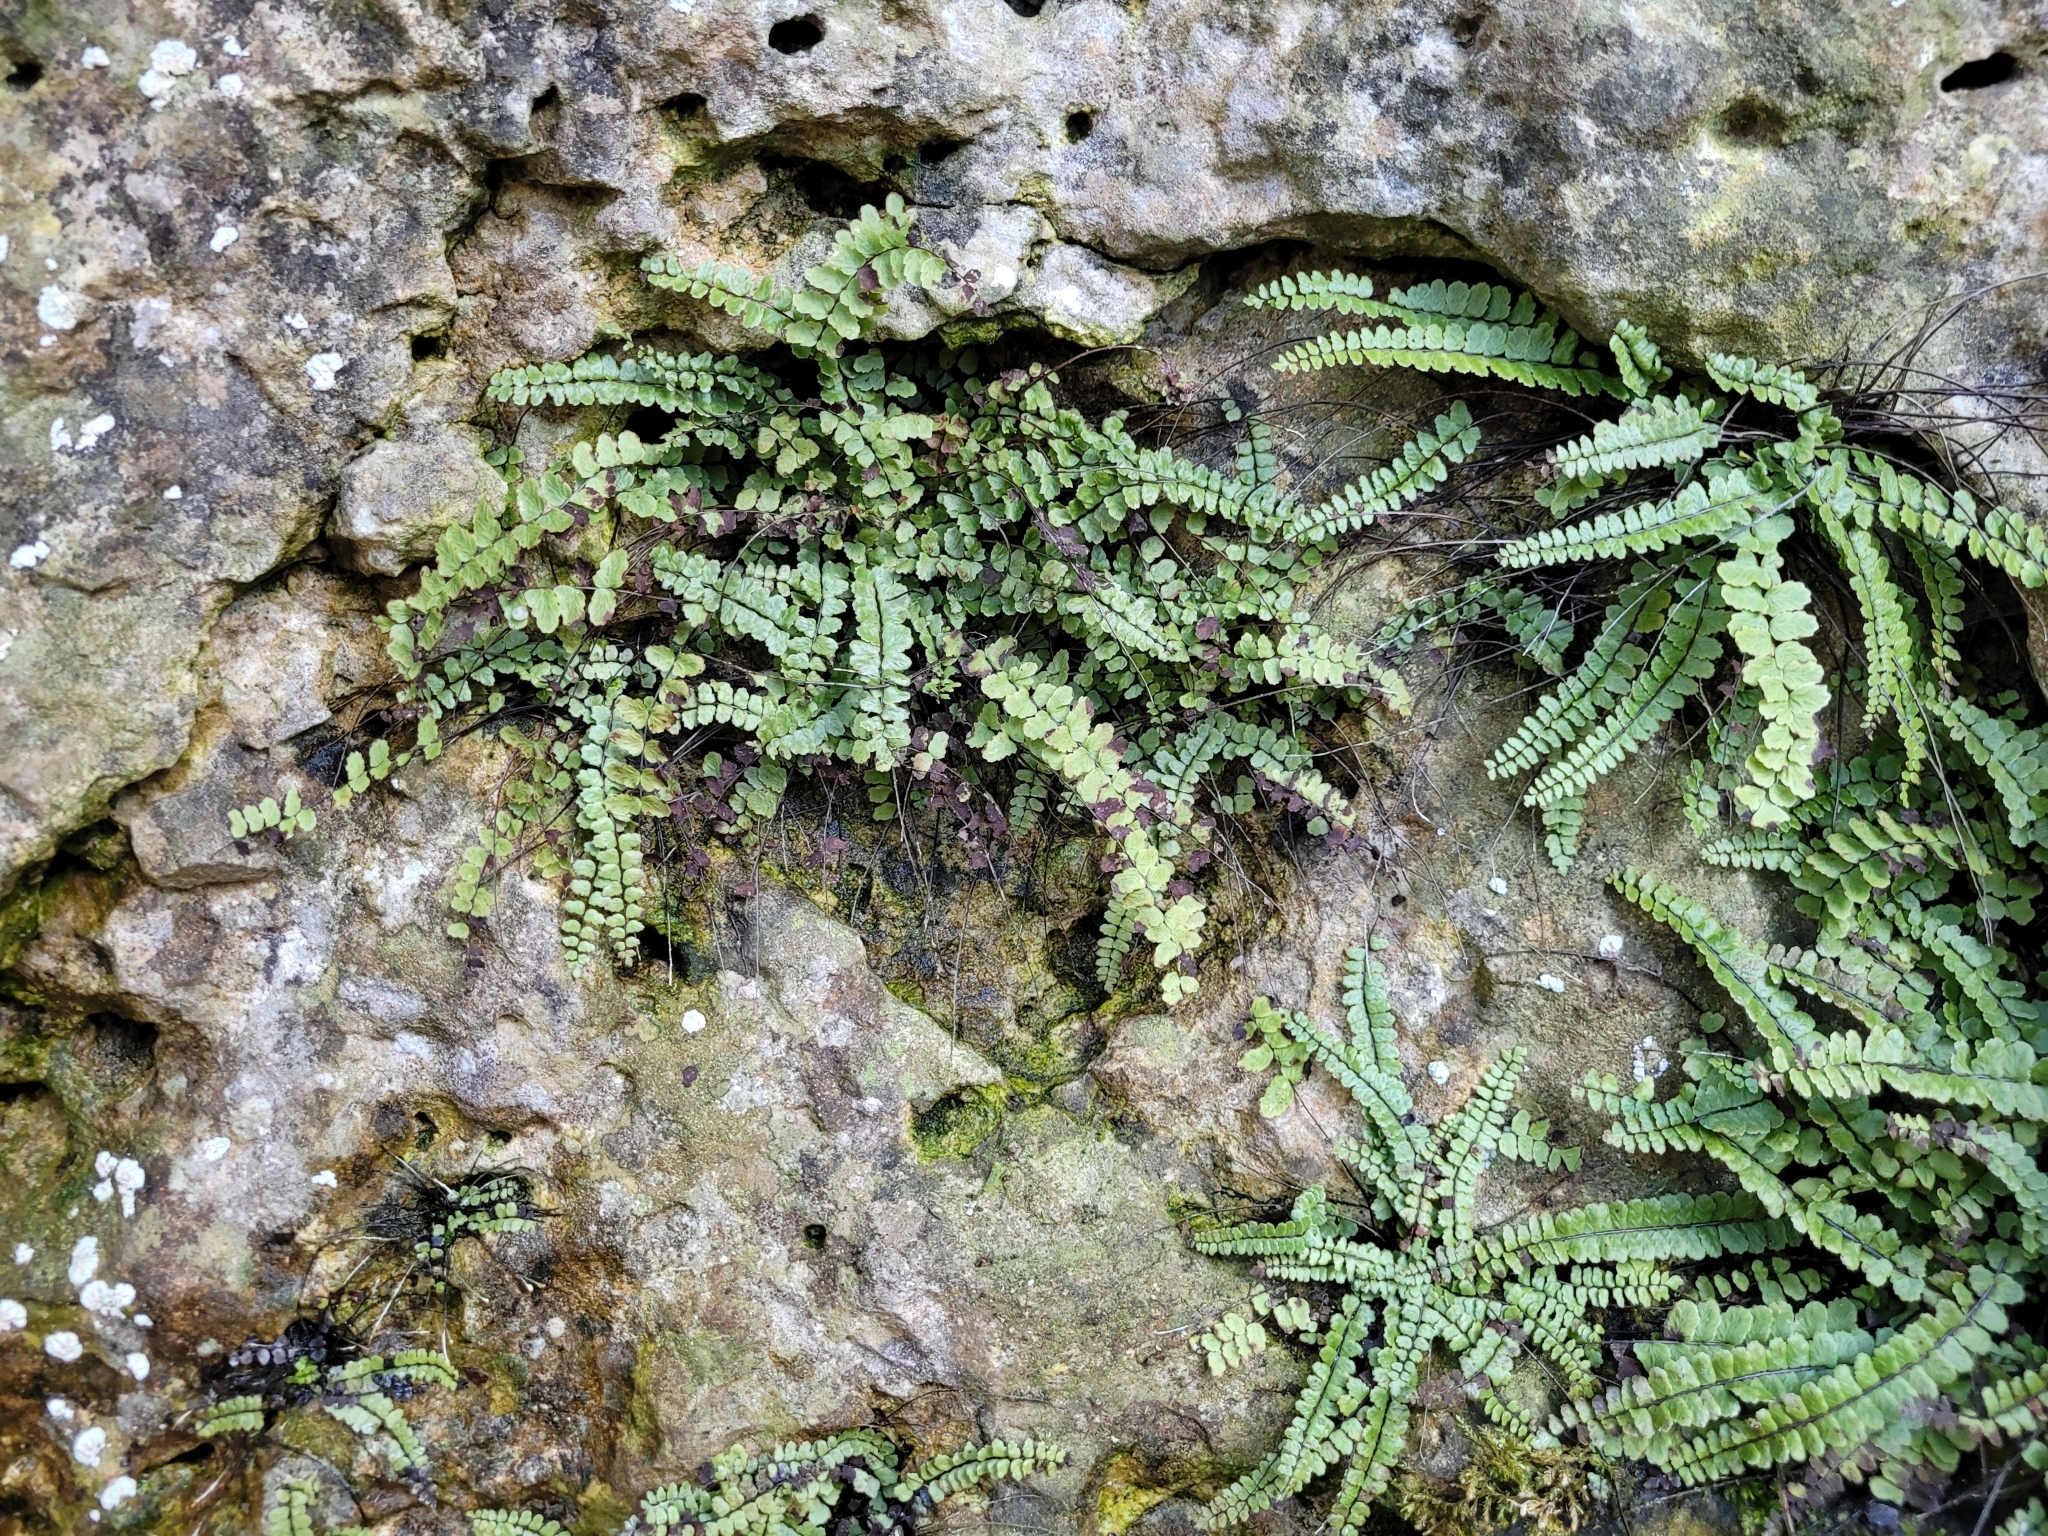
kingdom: Plantae
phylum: Tracheophyta
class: Polypodiopsida
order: Polypodiales
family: Aspleniaceae
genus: Asplenium
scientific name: Asplenium trichomanes
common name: Maidenhair spleenwort
